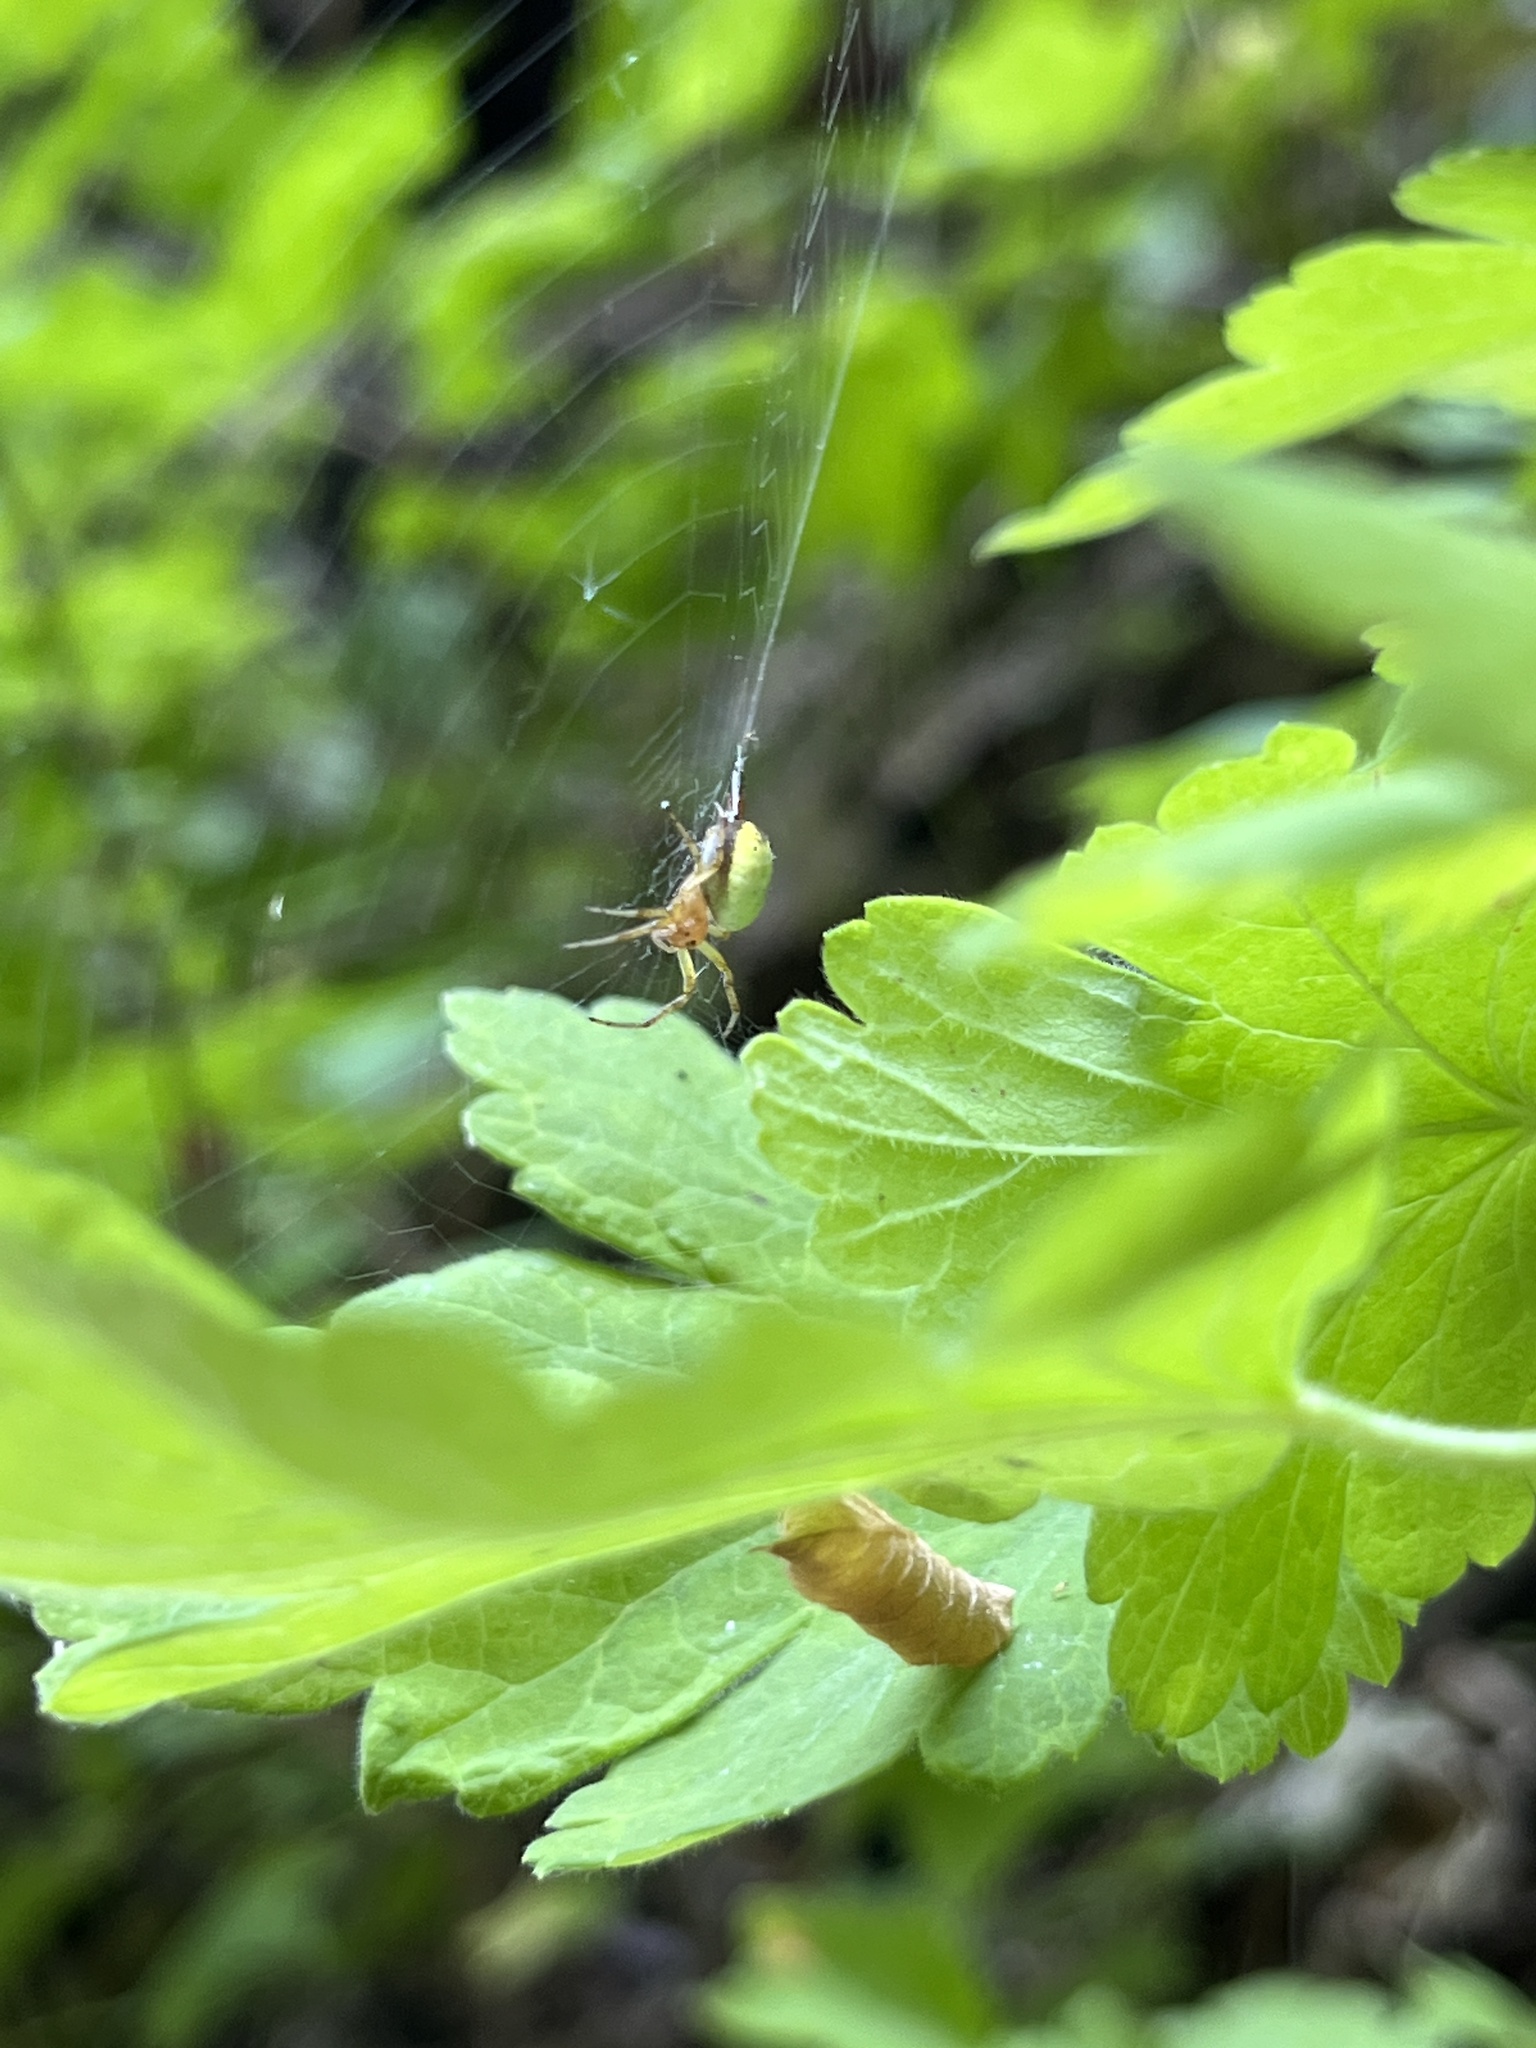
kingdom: Animalia
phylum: Arthropoda
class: Arachnida
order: Araneae
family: Araneidae
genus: Araniella
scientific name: Araniella displicata
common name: Sixspotted orb weaver
